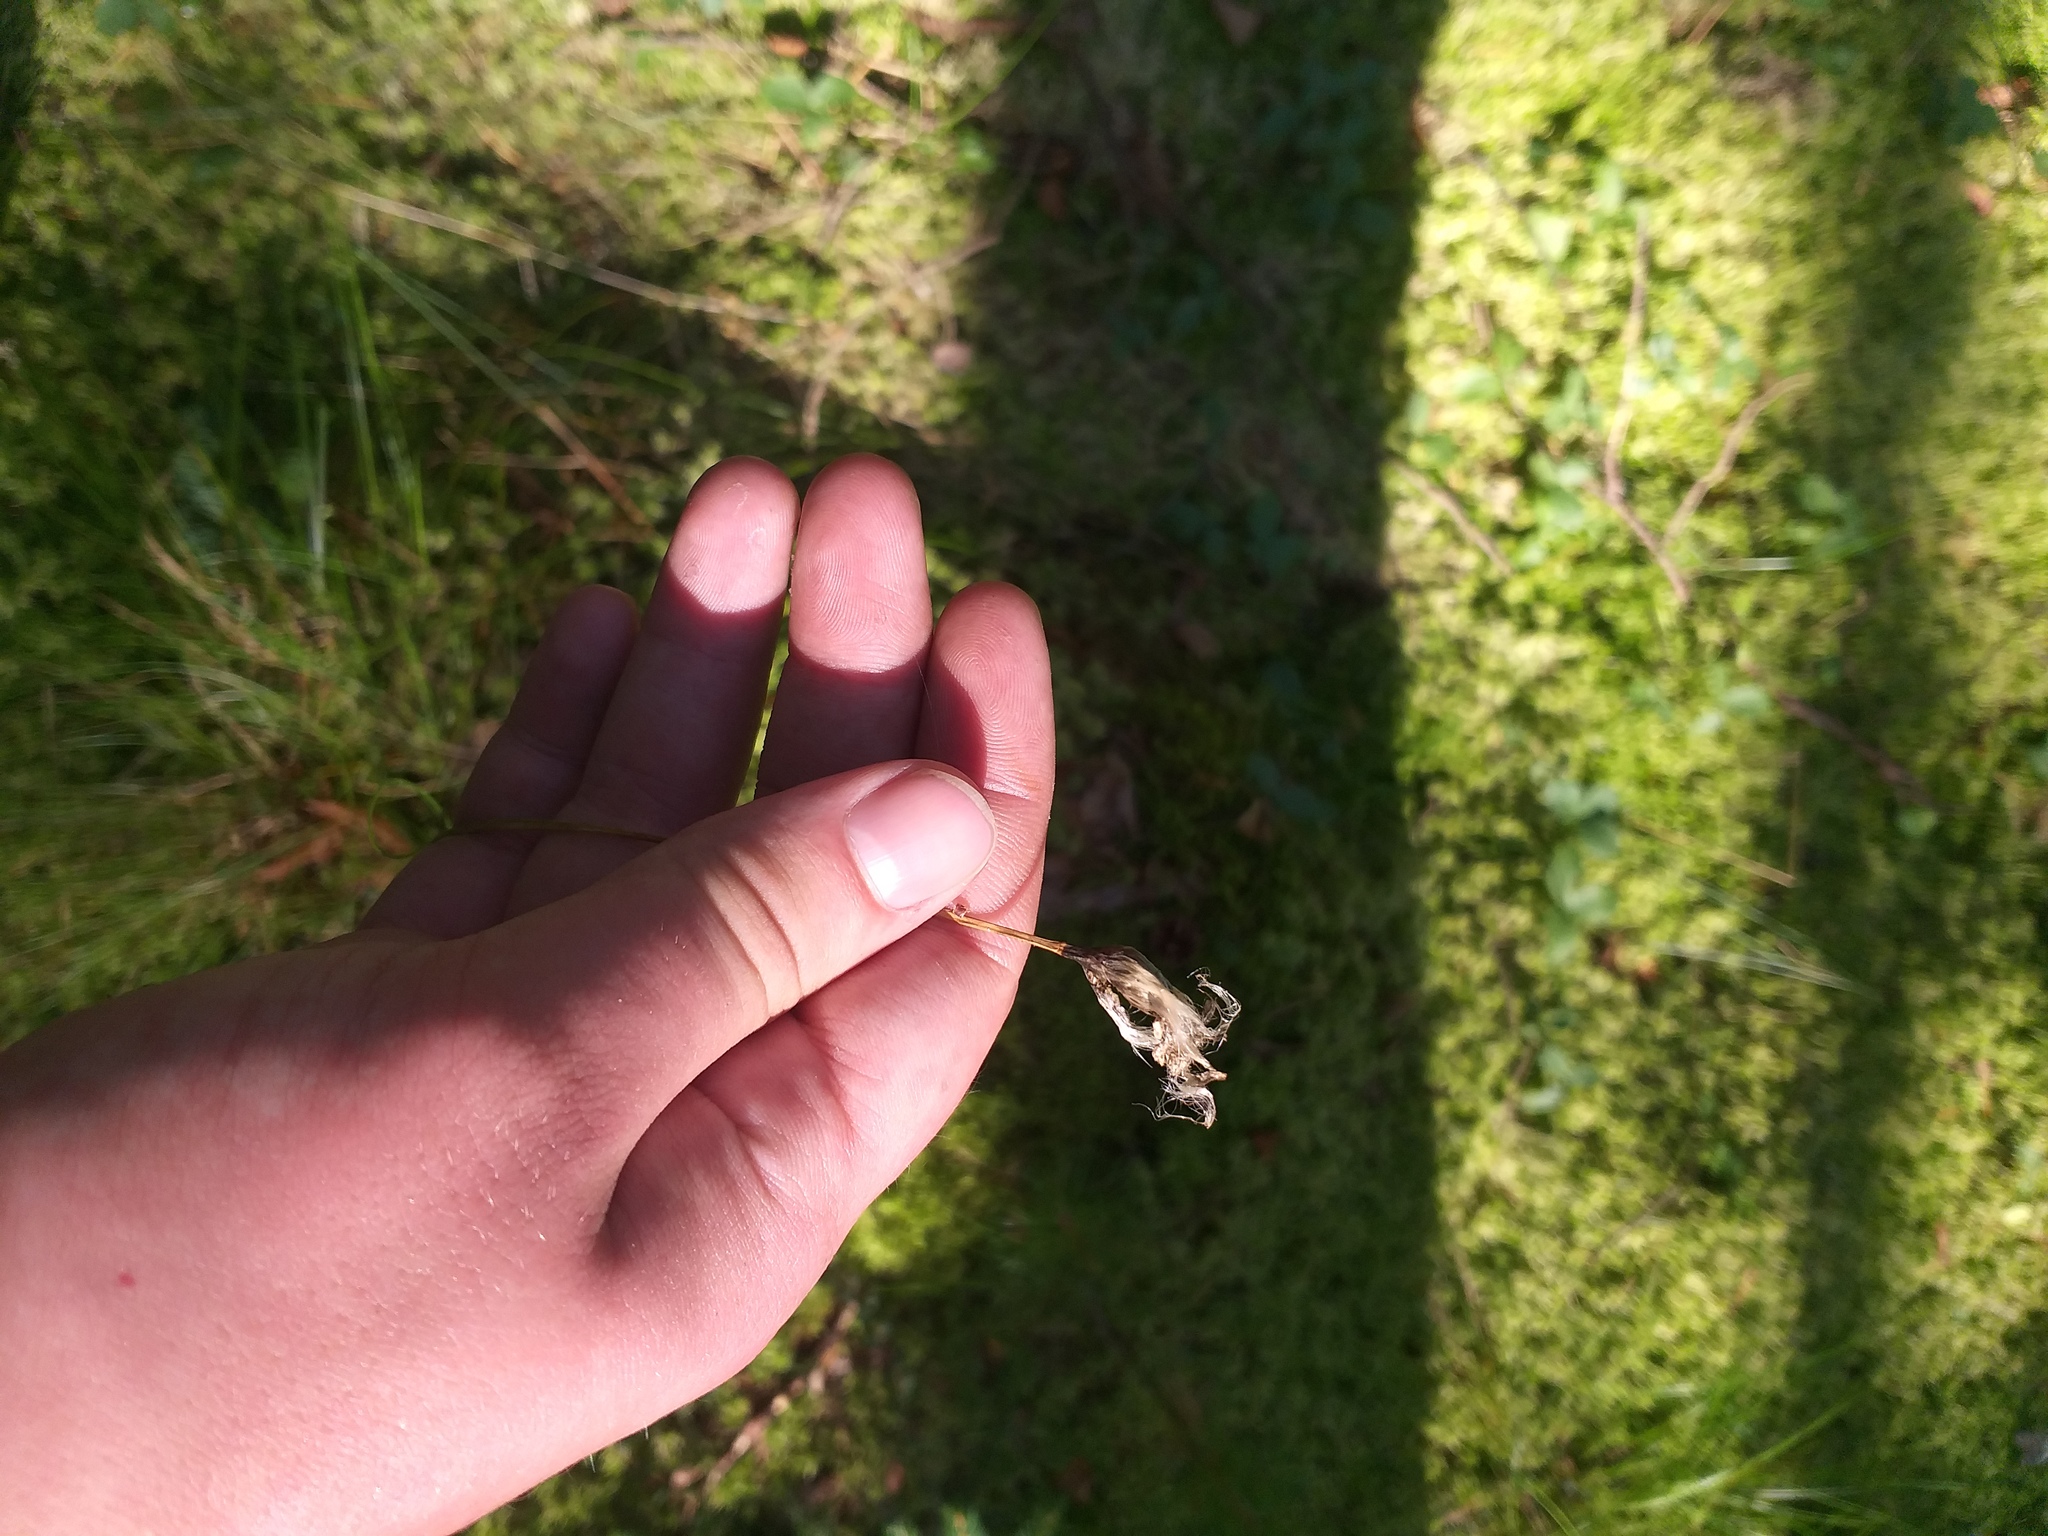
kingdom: Plantae
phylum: Tracheophyta
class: Liliopsida
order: Poales
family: Cyperaceae
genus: Eriophorum
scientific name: Eriophorum vaginatum
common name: Hare's-tail cottongrass
